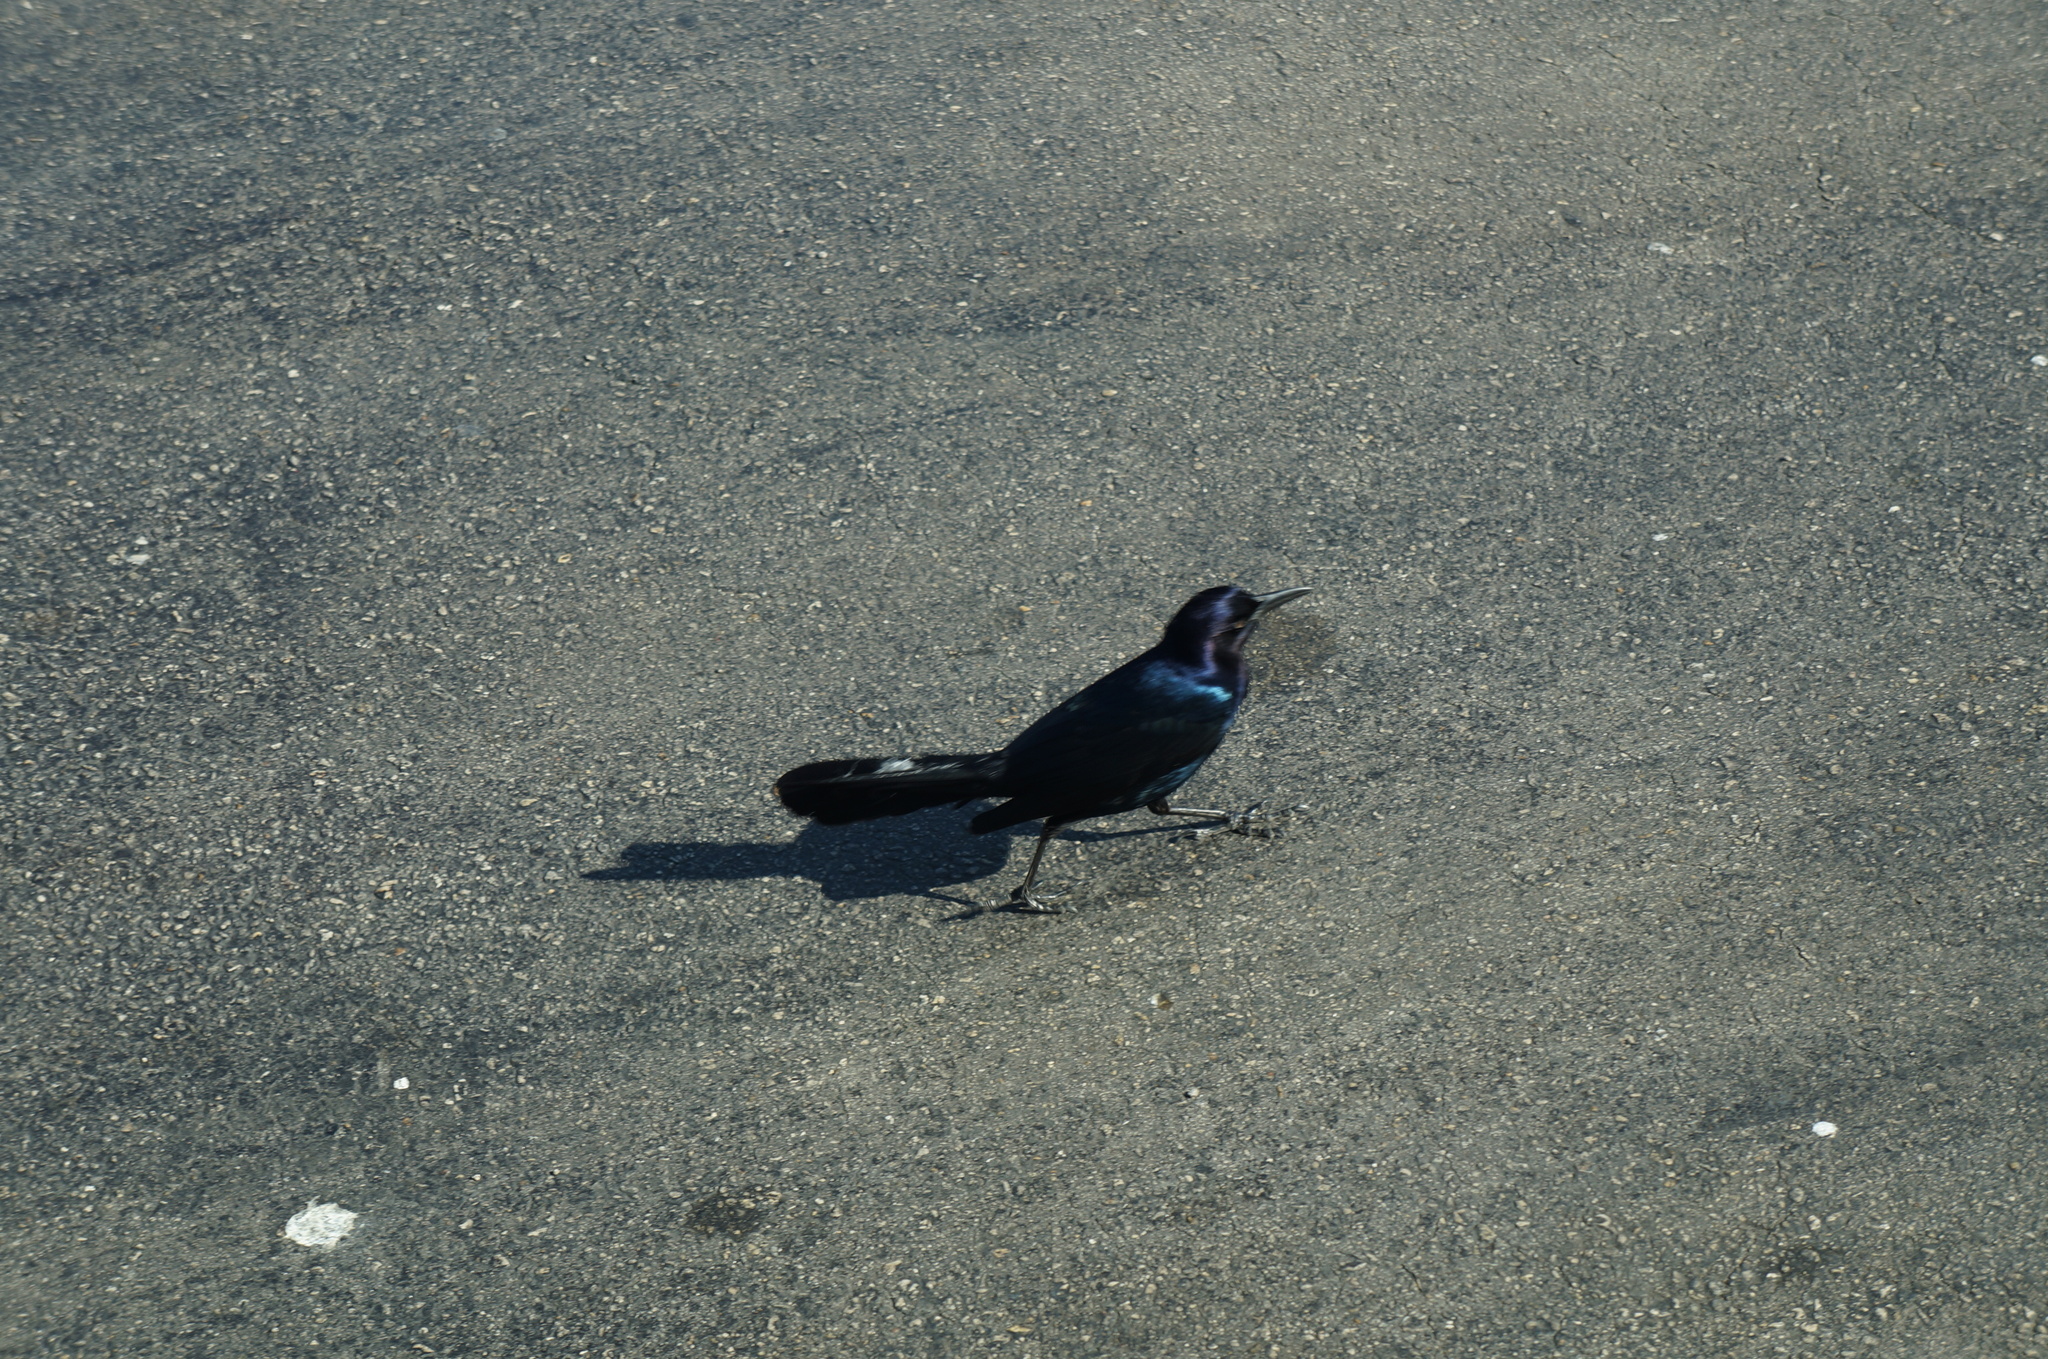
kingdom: Animalia
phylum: Chordata
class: Aves
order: Passeriformes
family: Icteridae
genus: Quiscalus
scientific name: Quiscalus major
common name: Boat-tailed grackle
